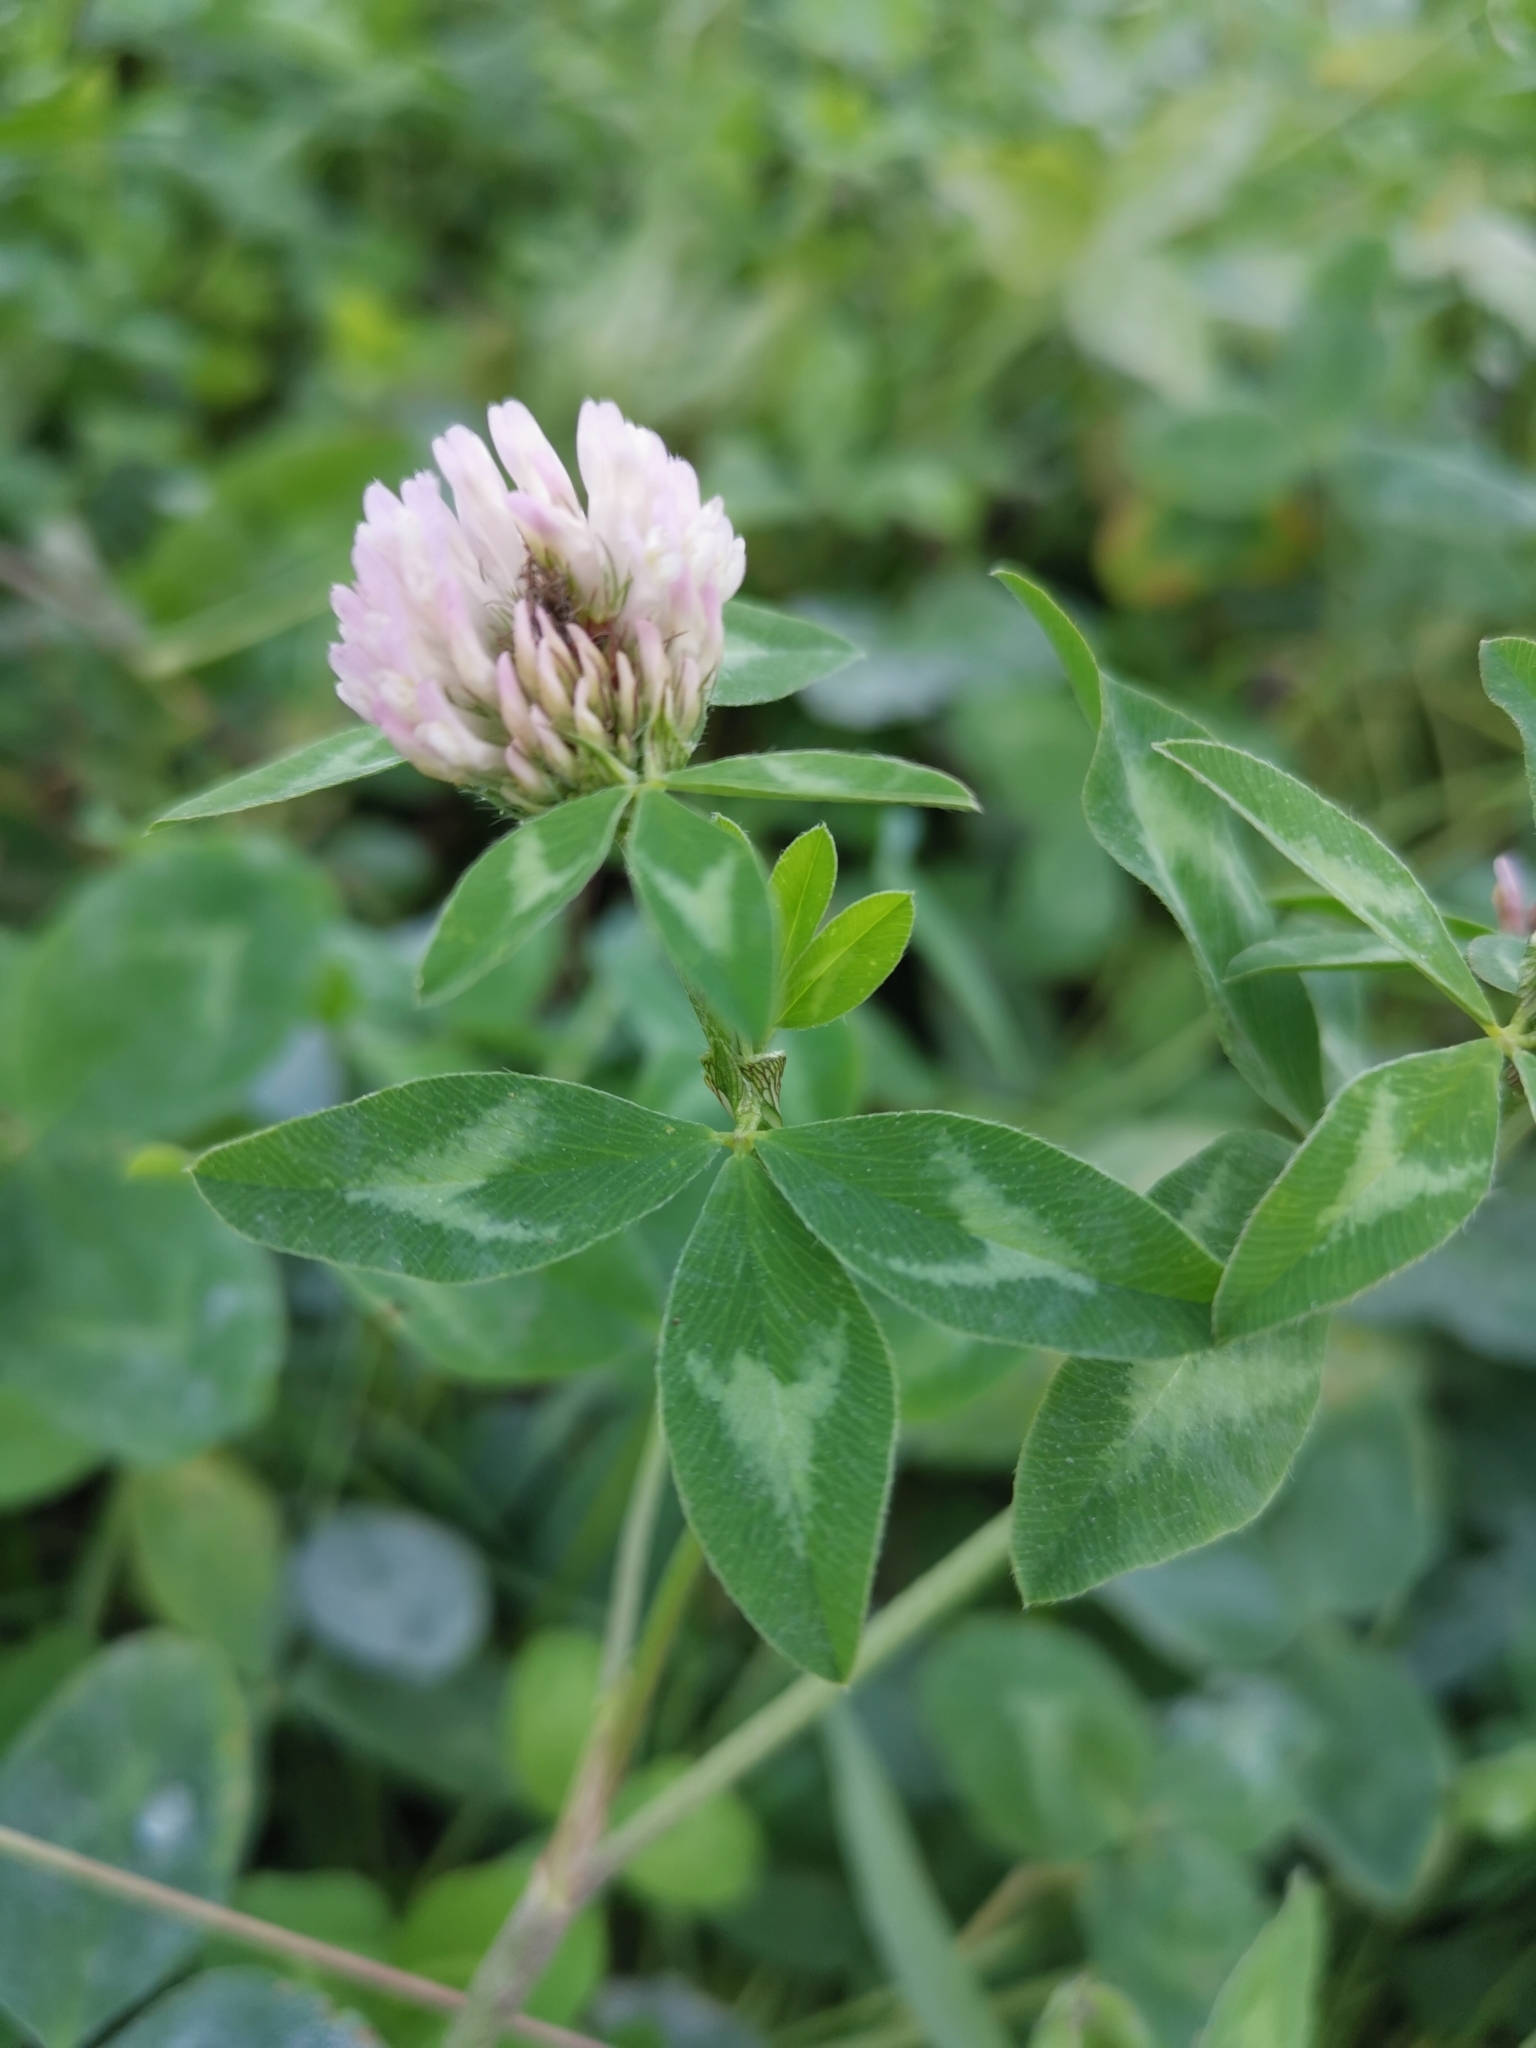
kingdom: Plantae
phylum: Tracheophyta
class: Magnoliopsida
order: Fabales
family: Fabaceae
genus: Trifolium
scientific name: Trifolium pratense
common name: Red clover
